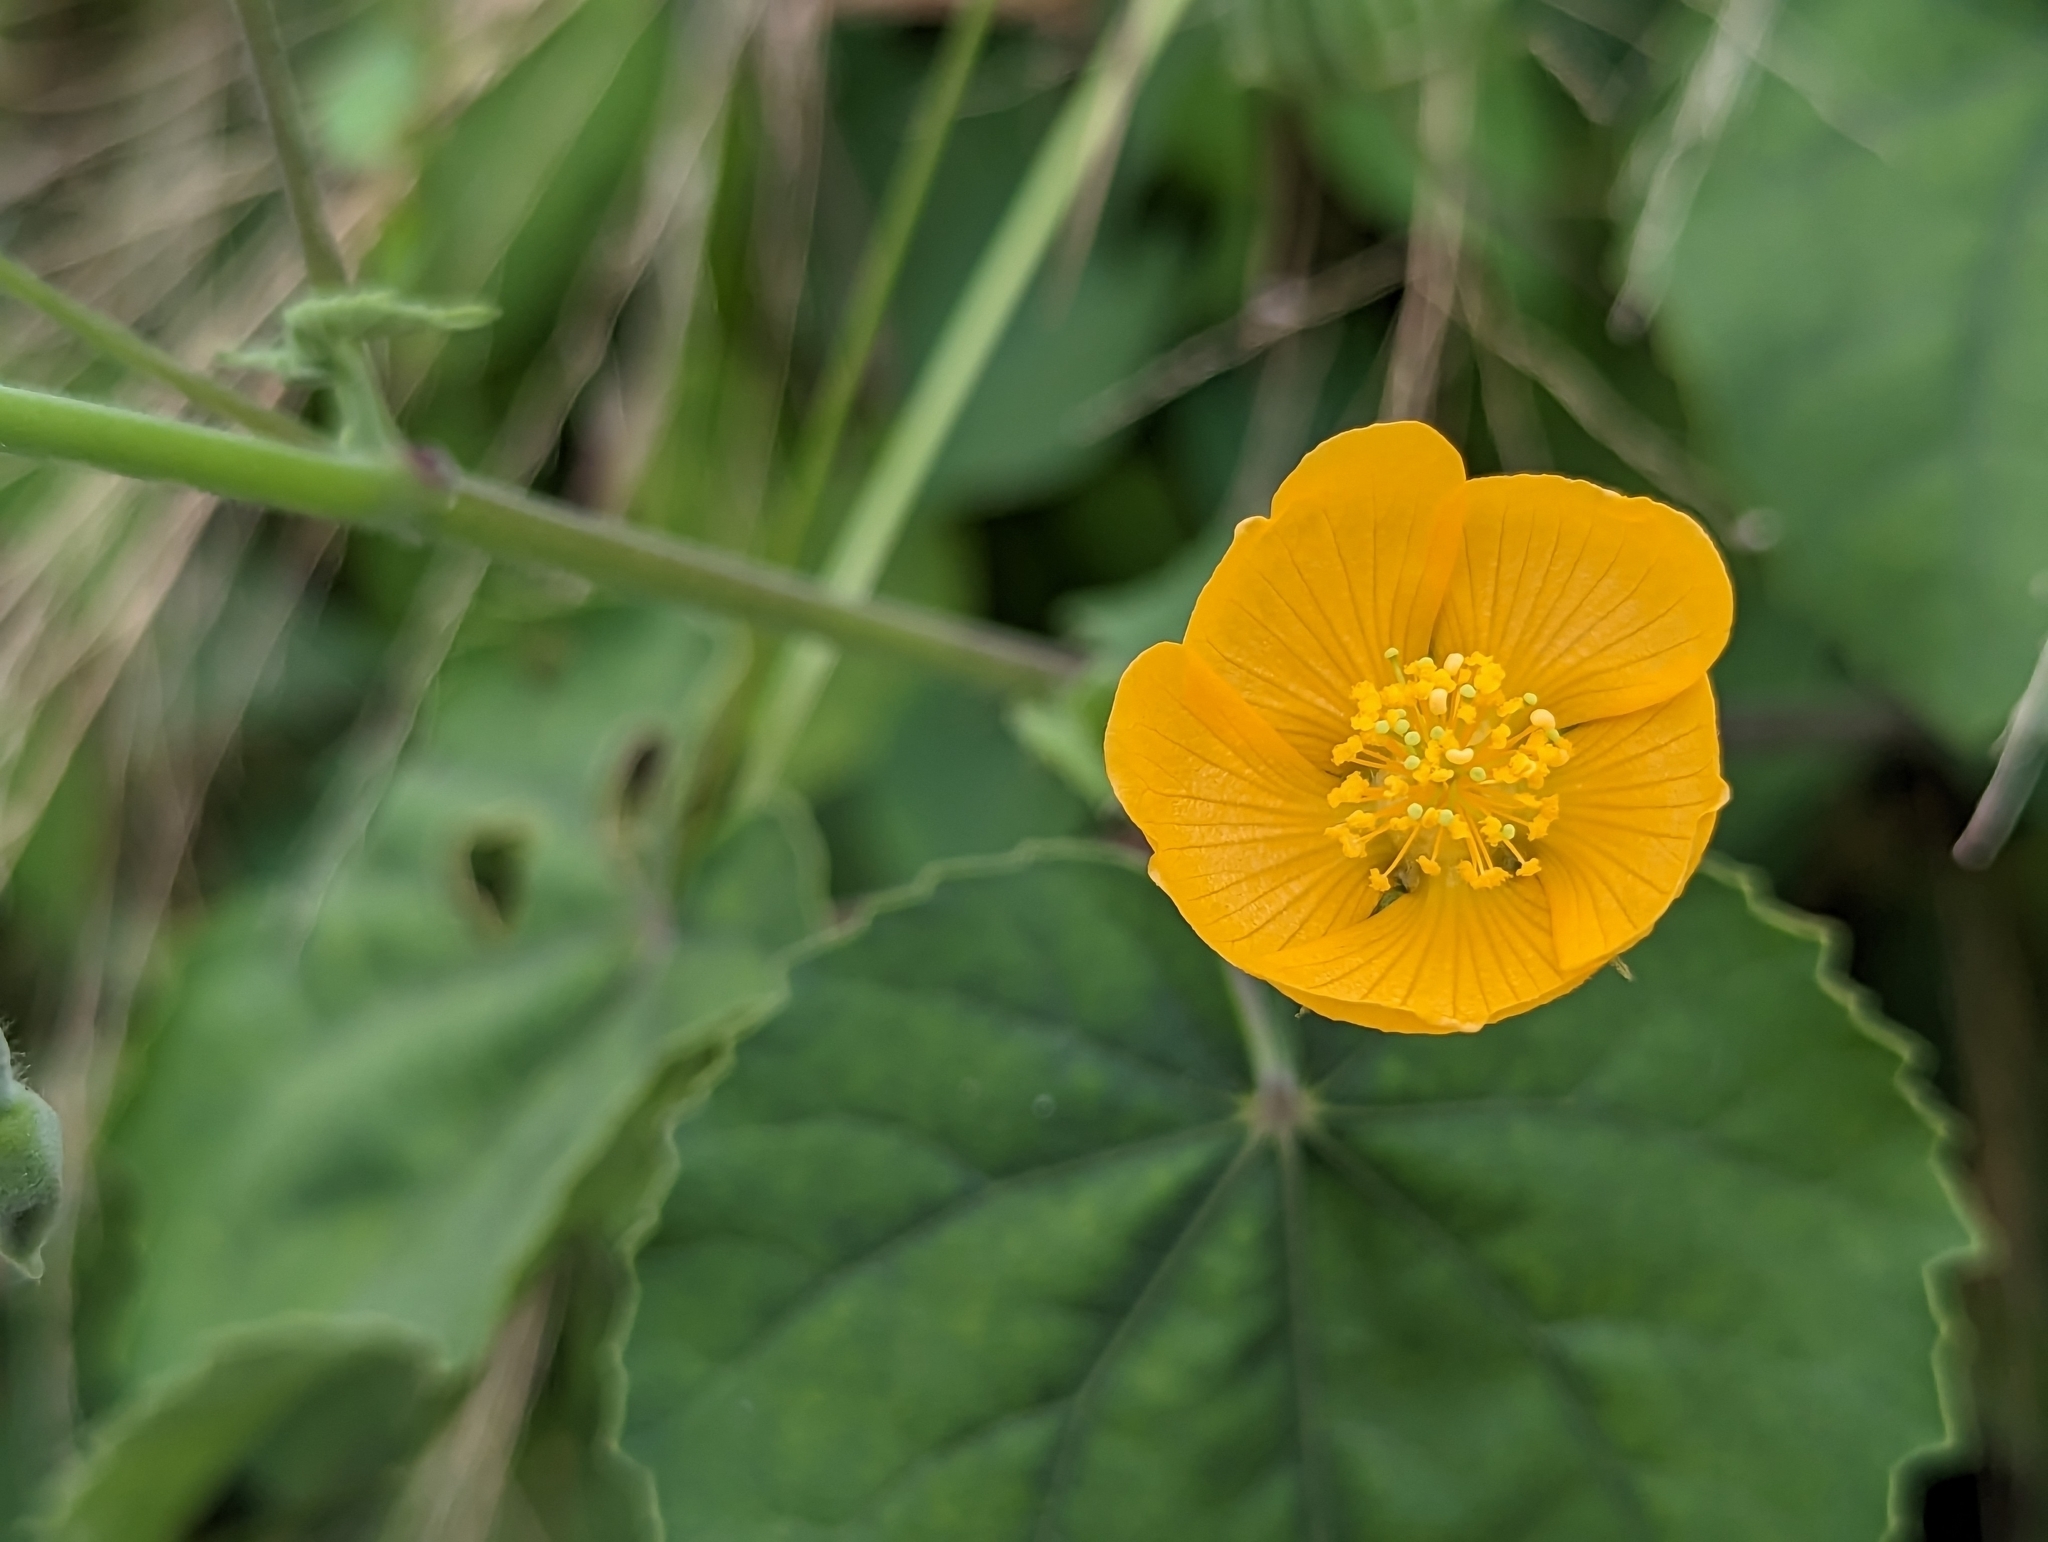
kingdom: Plantae
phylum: Tracheophyta
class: Magnoliopsida
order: Malvales
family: Malvaceae
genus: Abutilon
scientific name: Abutilon indicum
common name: Indian abutilon
